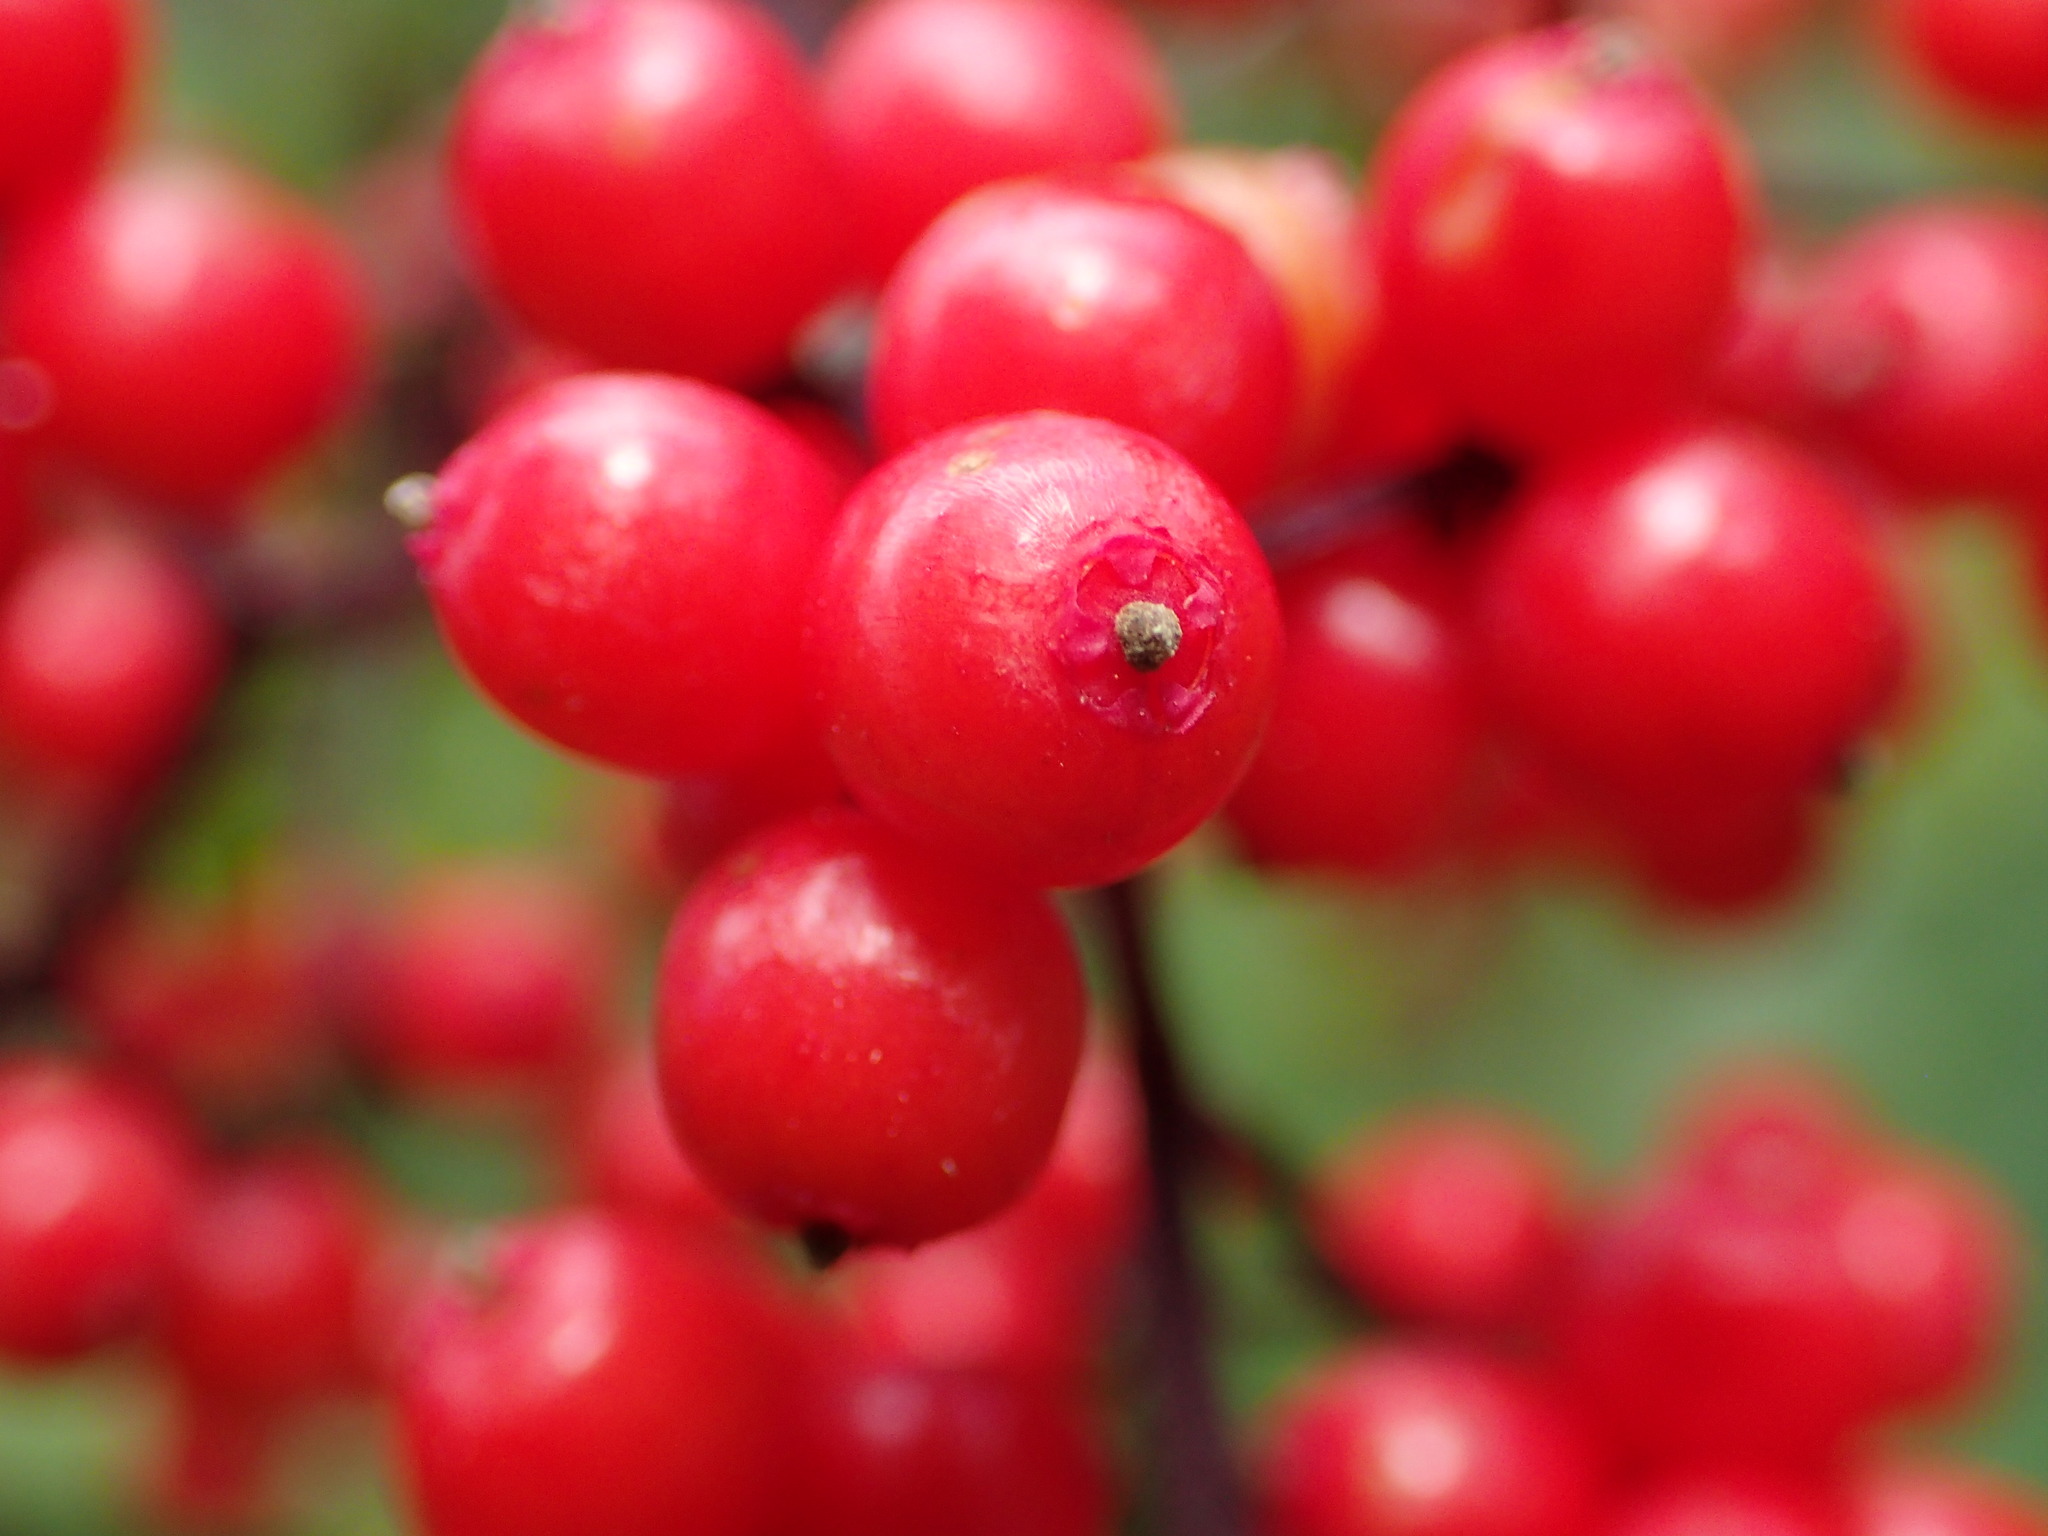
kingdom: Plantae
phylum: Tracheophyta
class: Magnoliopsida
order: Dipsacales
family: Viburnaceae
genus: Sambucus
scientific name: Sambucus racemosa
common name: Red-berried elder
